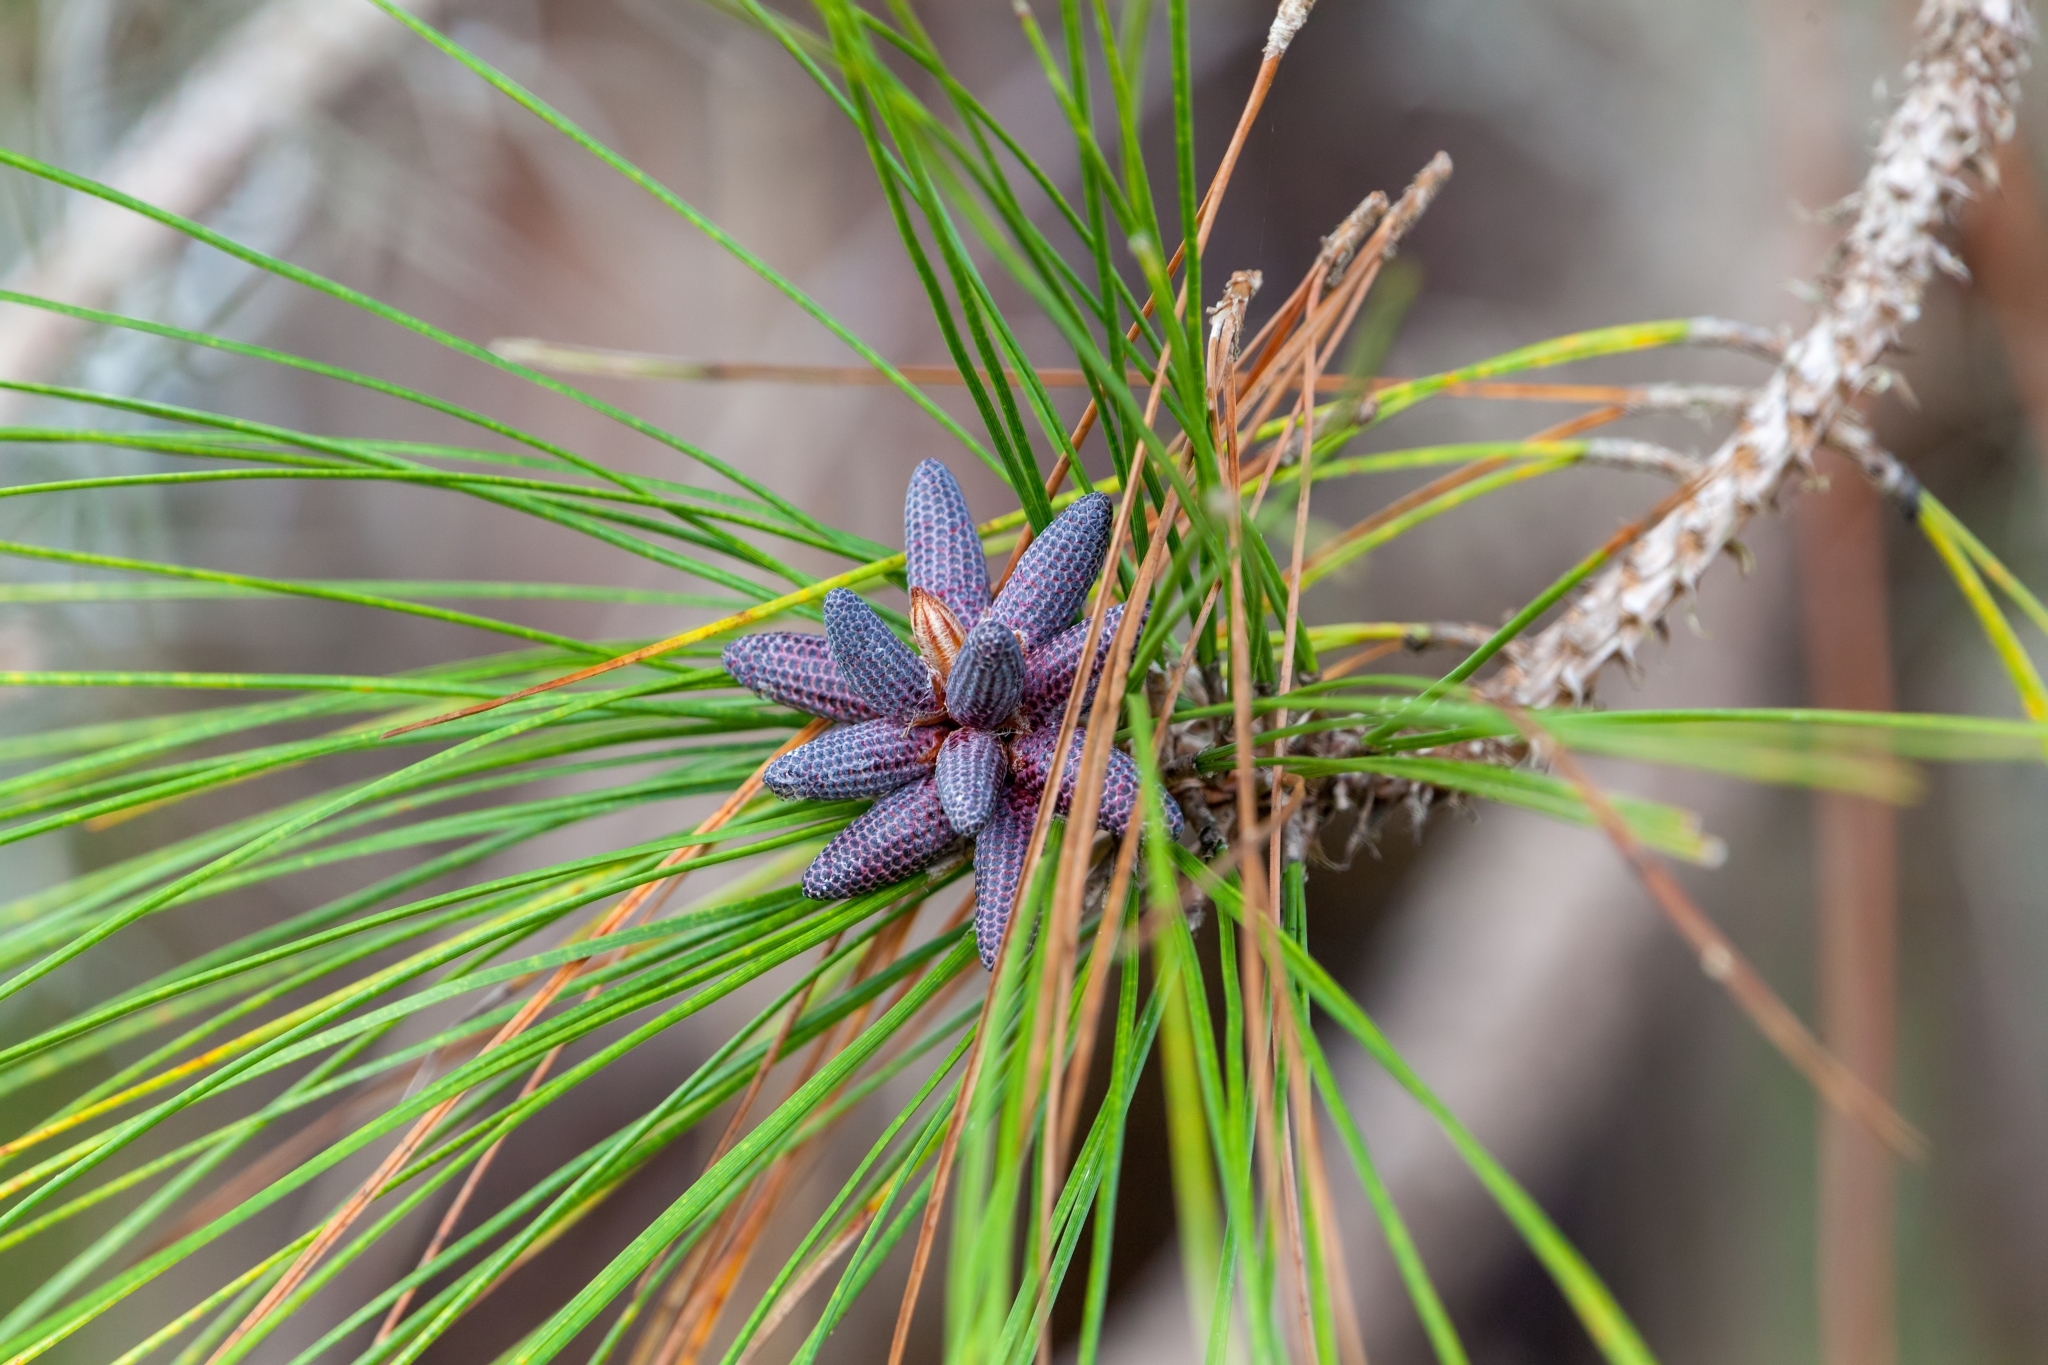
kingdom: Plantae
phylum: Tracheophyta
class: Pinopsida
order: Pinales
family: Pinaceae
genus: Pinus
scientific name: Pinus elliottii
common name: Slash pine
